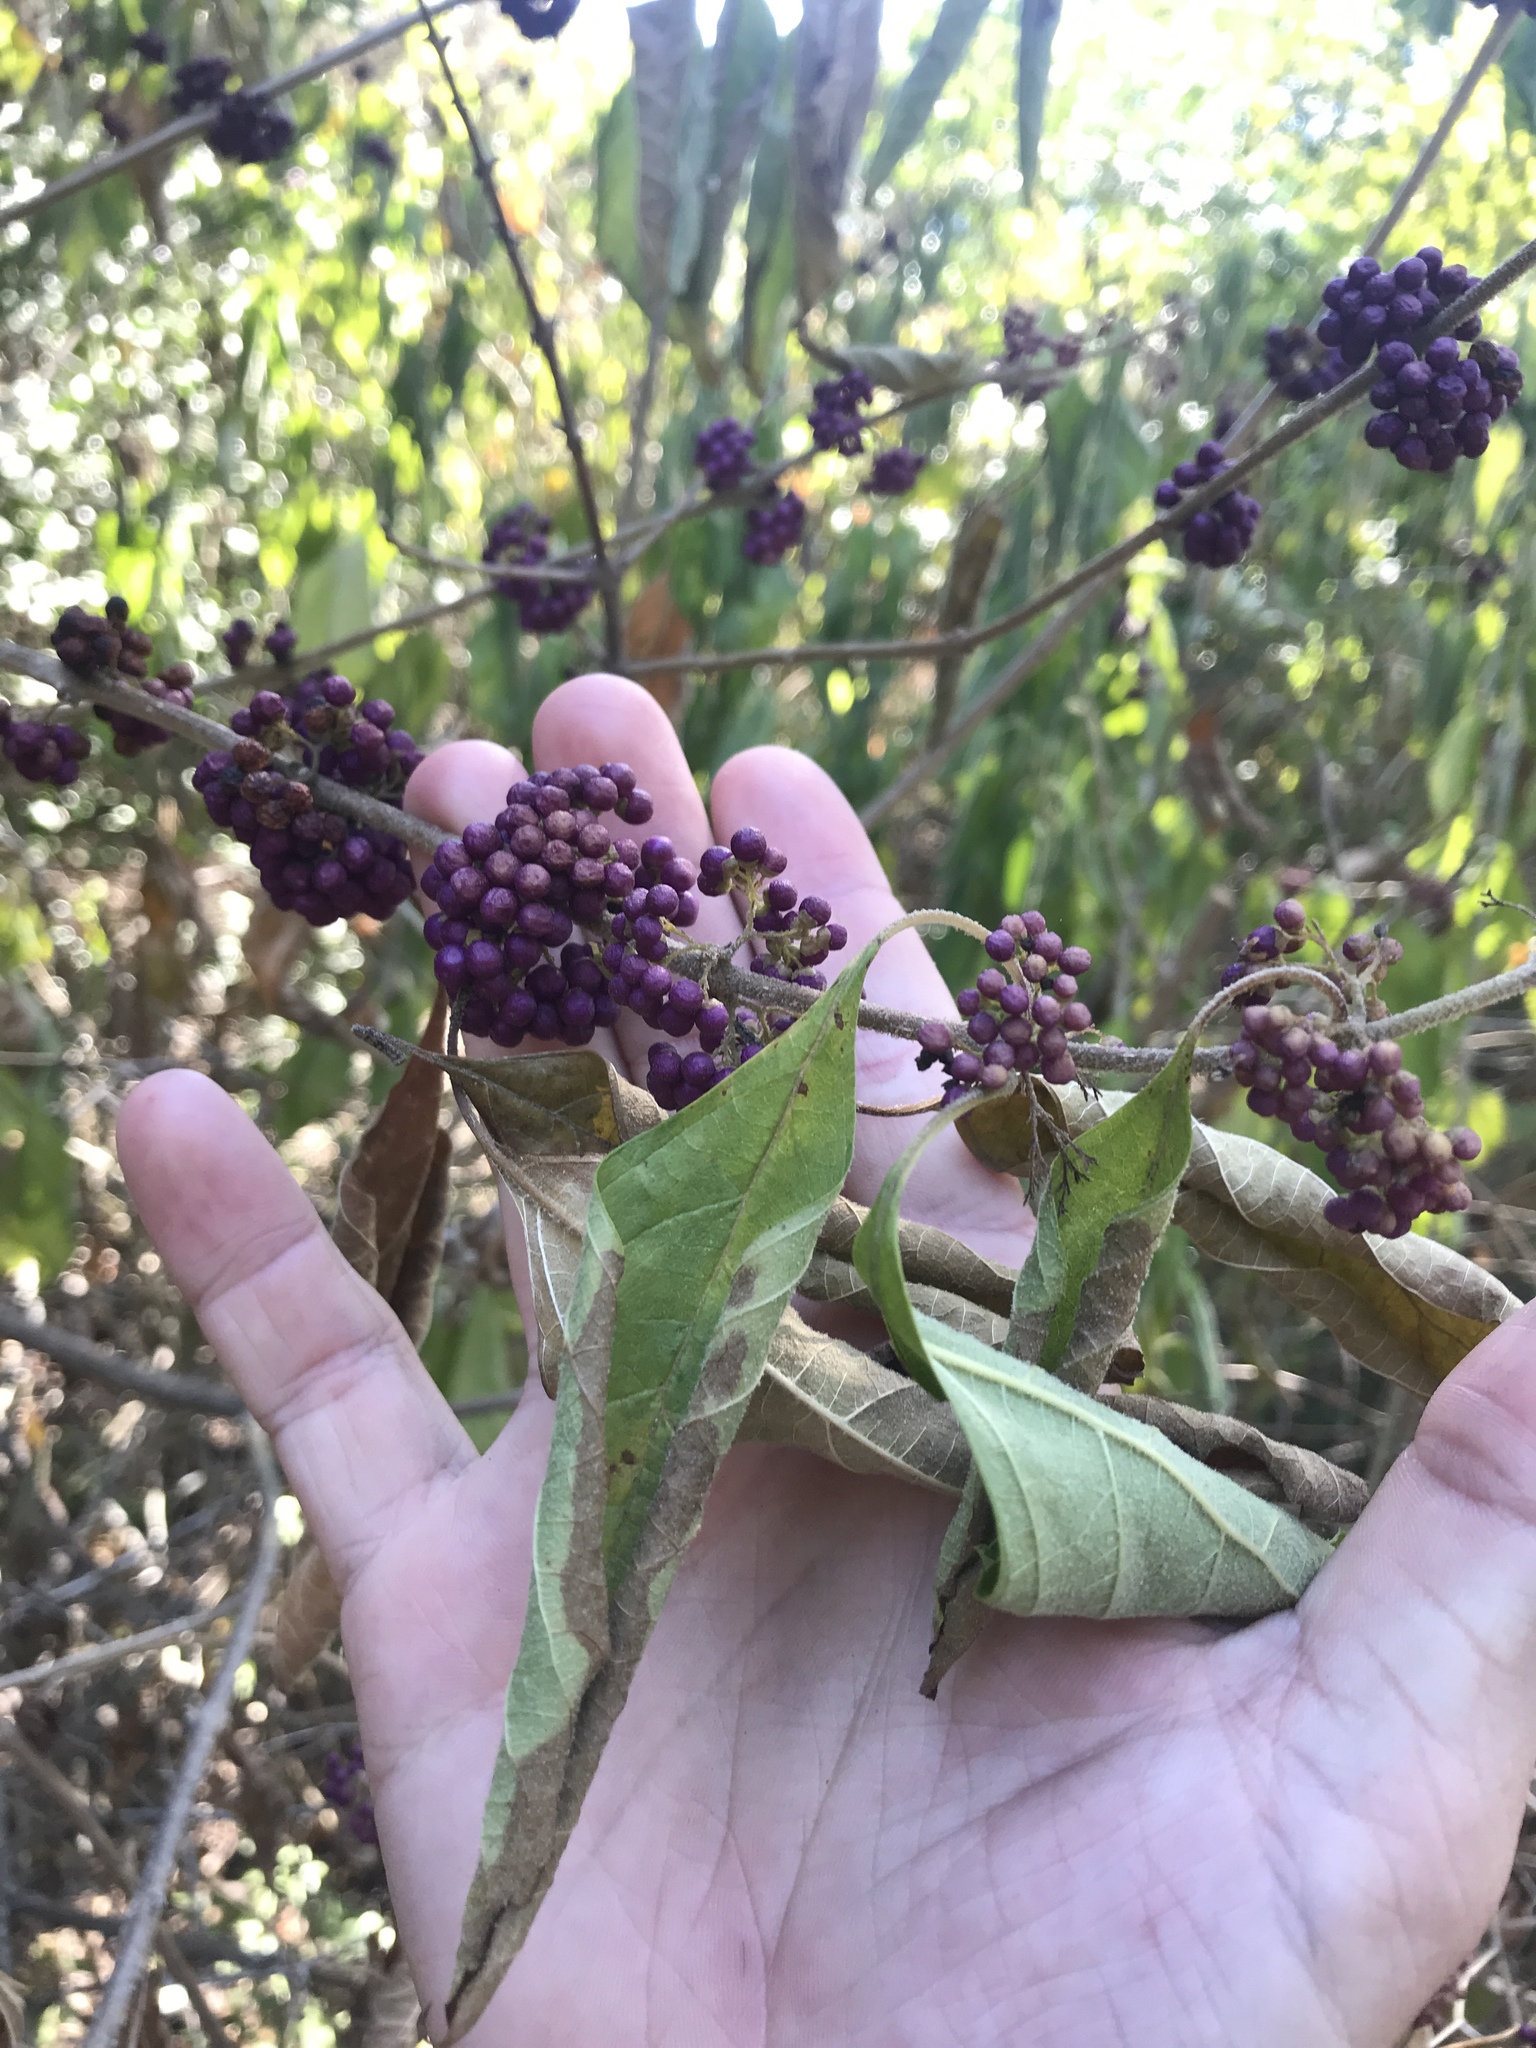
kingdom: Plantae
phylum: Tracheophyta
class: Magnoliopsida
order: Lamiales
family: Lamiaceae
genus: Callicarpa
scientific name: Callicarpa americana
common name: American beautyberry
